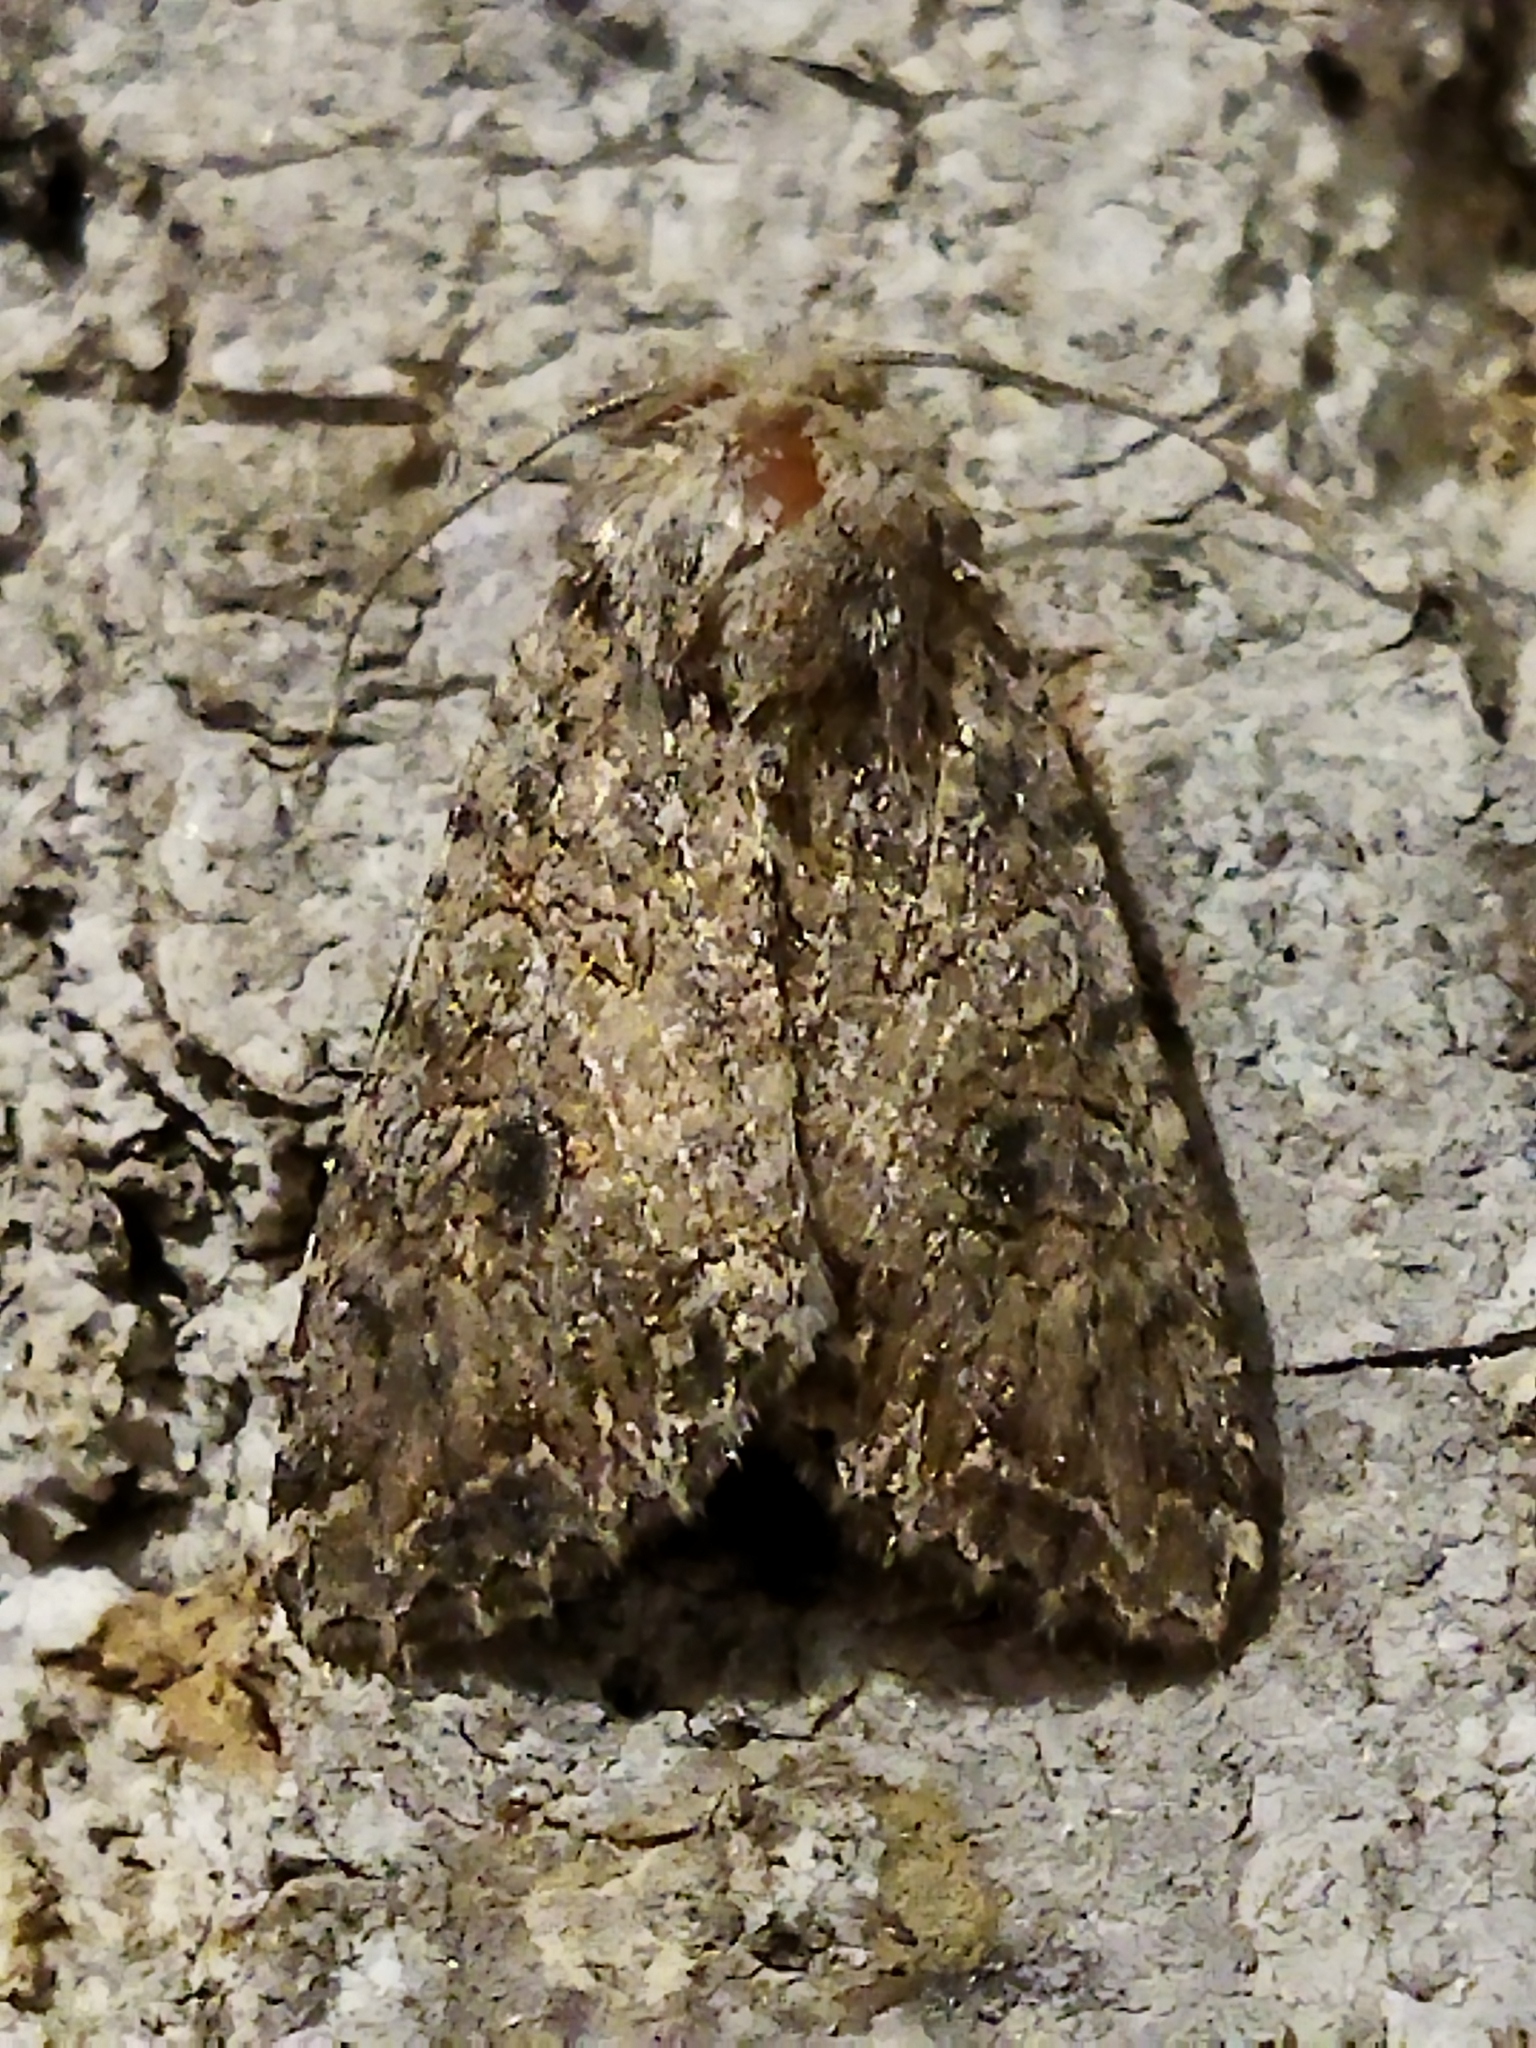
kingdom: Animalia
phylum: Arthropoda
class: Insecta
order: Lepidoptera
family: Noctuidae
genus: Anarta
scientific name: Anarta trifolii
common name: Clover cutworm moth
